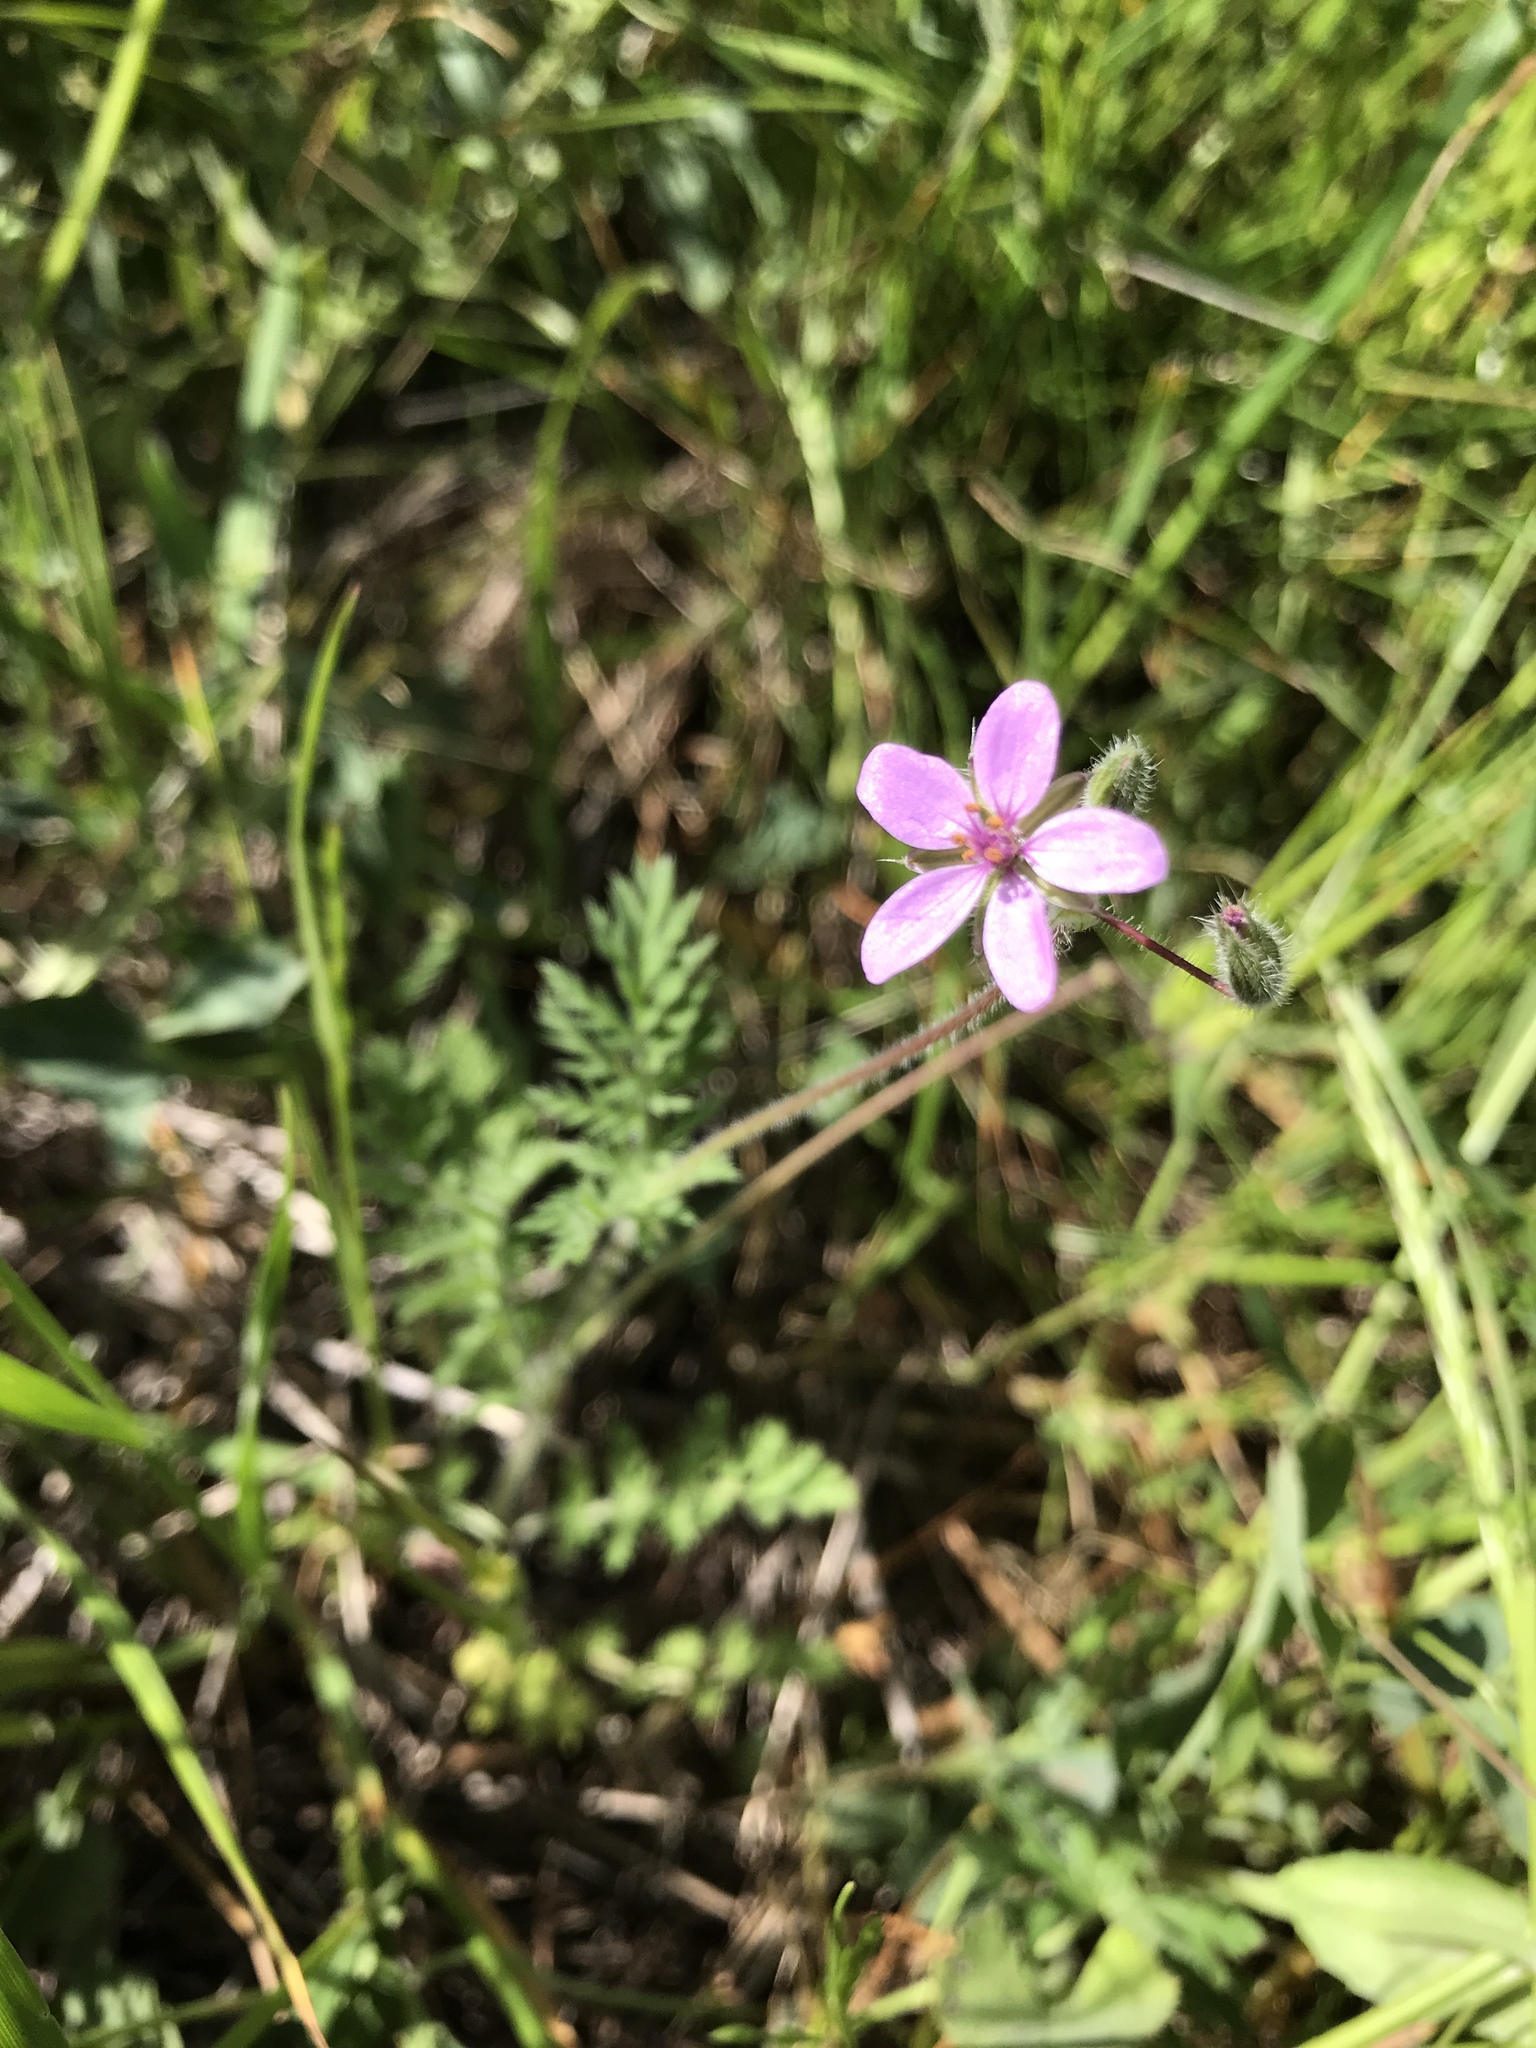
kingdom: Plantae
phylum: Tracheophyta
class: Magnoliopsida
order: Geraniales
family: Geraniaceae
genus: Erodium
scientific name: Erodium cicutarium
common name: Common stork's-bill
